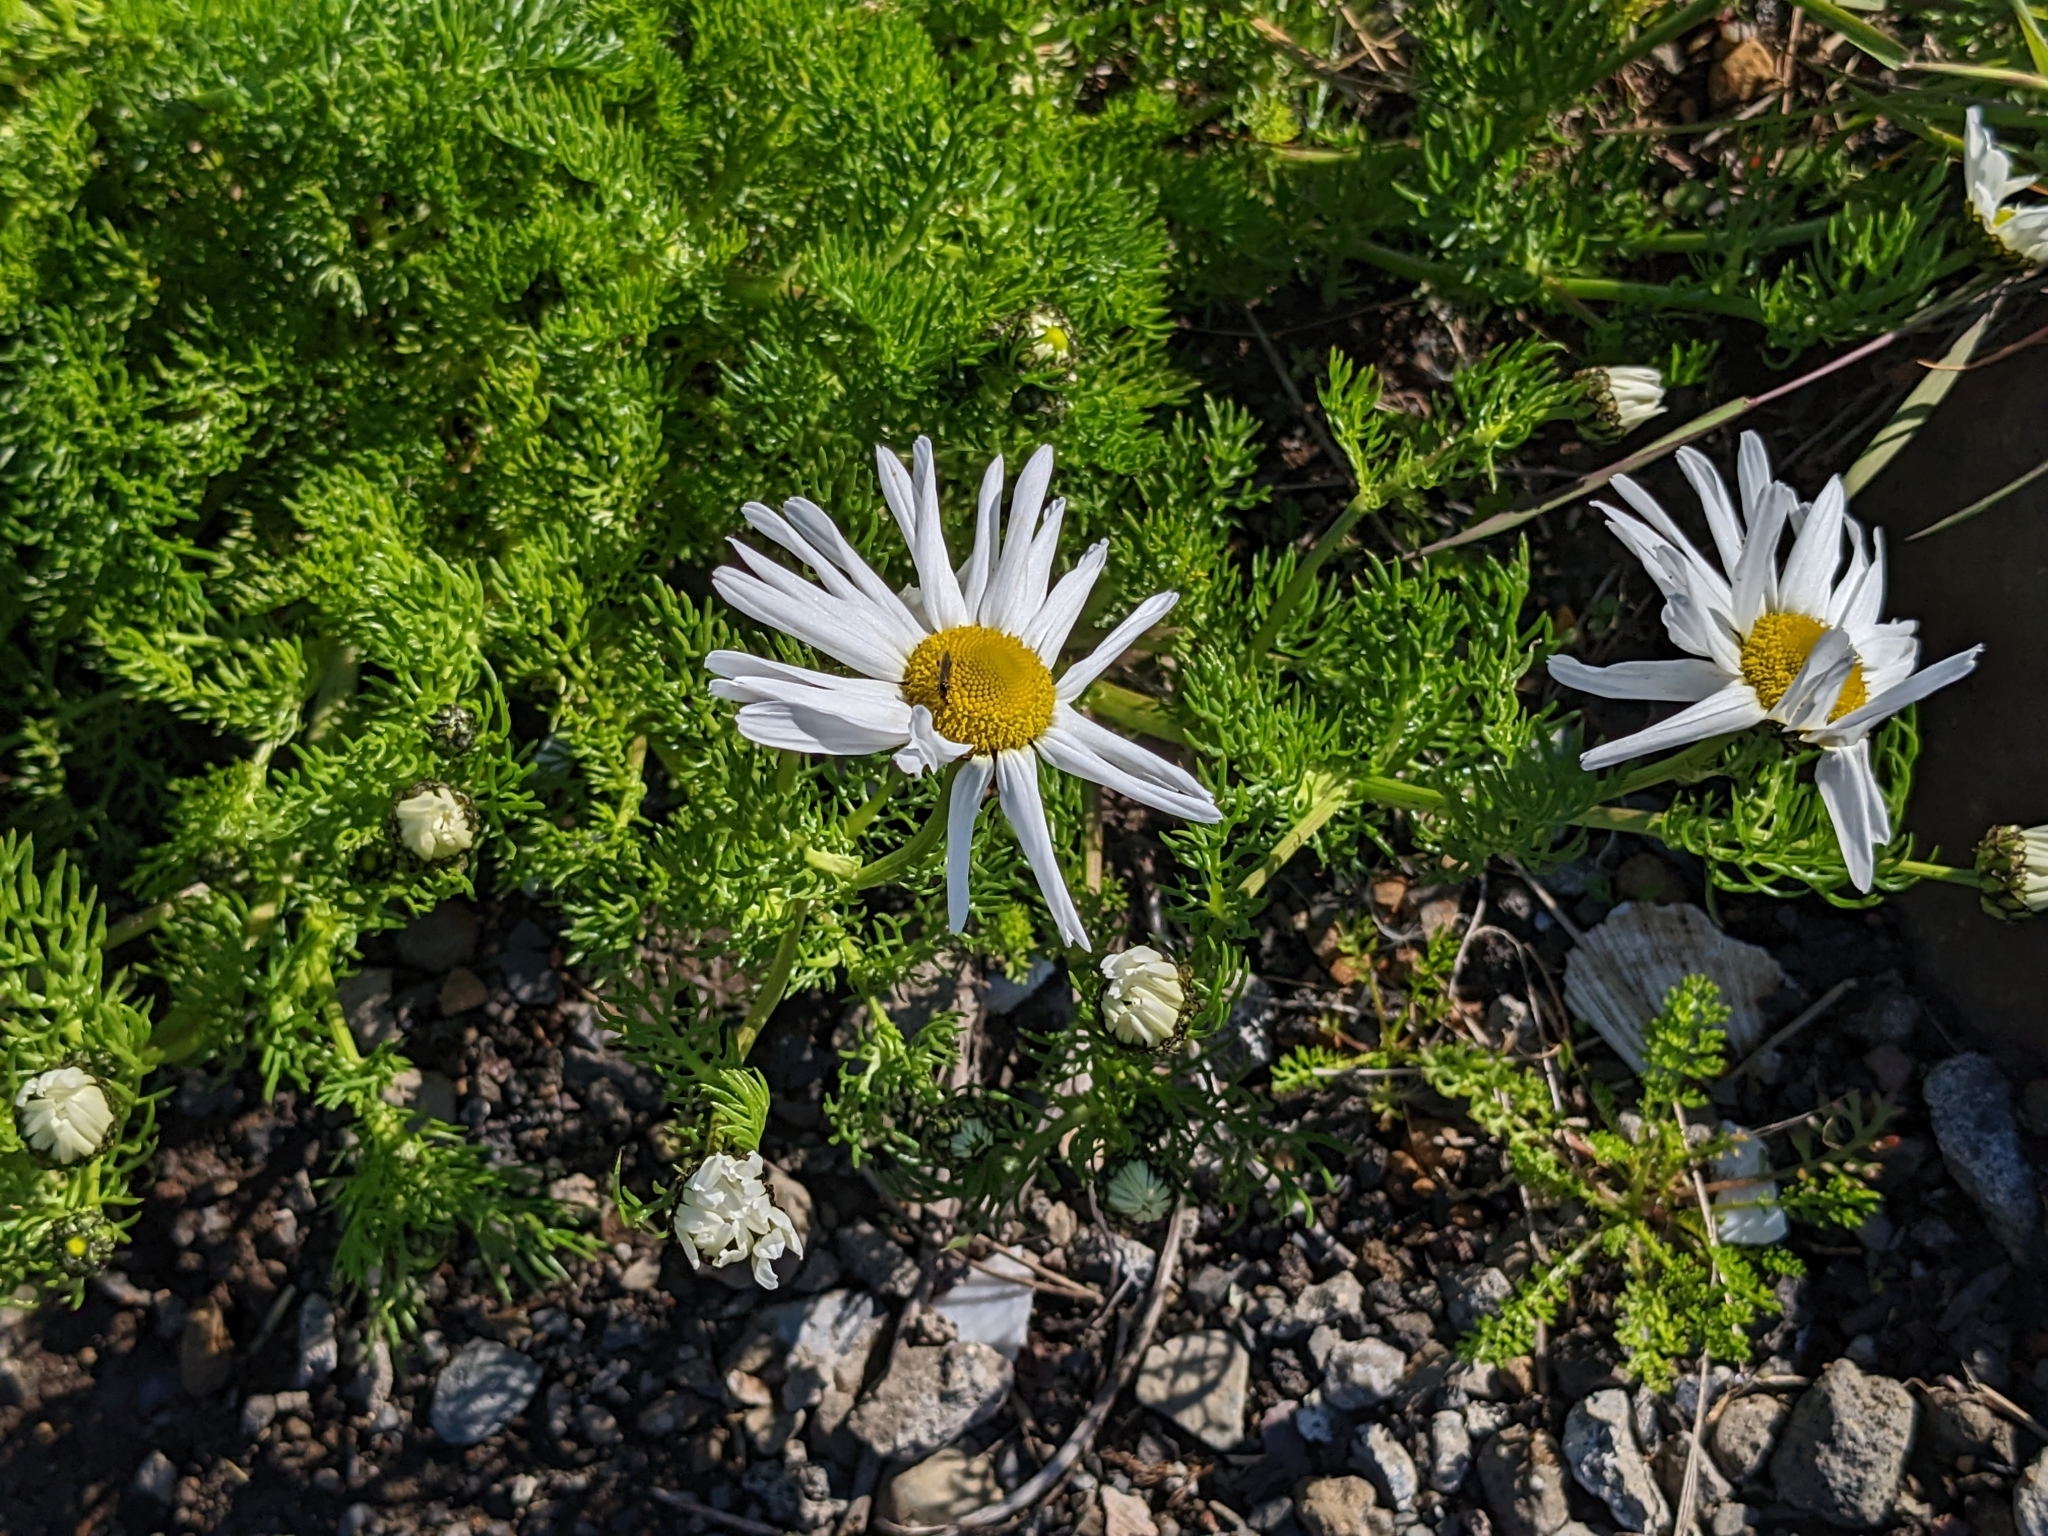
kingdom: Plantae
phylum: Tracheophyta
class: Magnoliopsida
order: Asterales
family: Asteraceae
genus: Tripleurospermum
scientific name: Tripleurospermum maritimum
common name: Sea mayweed
